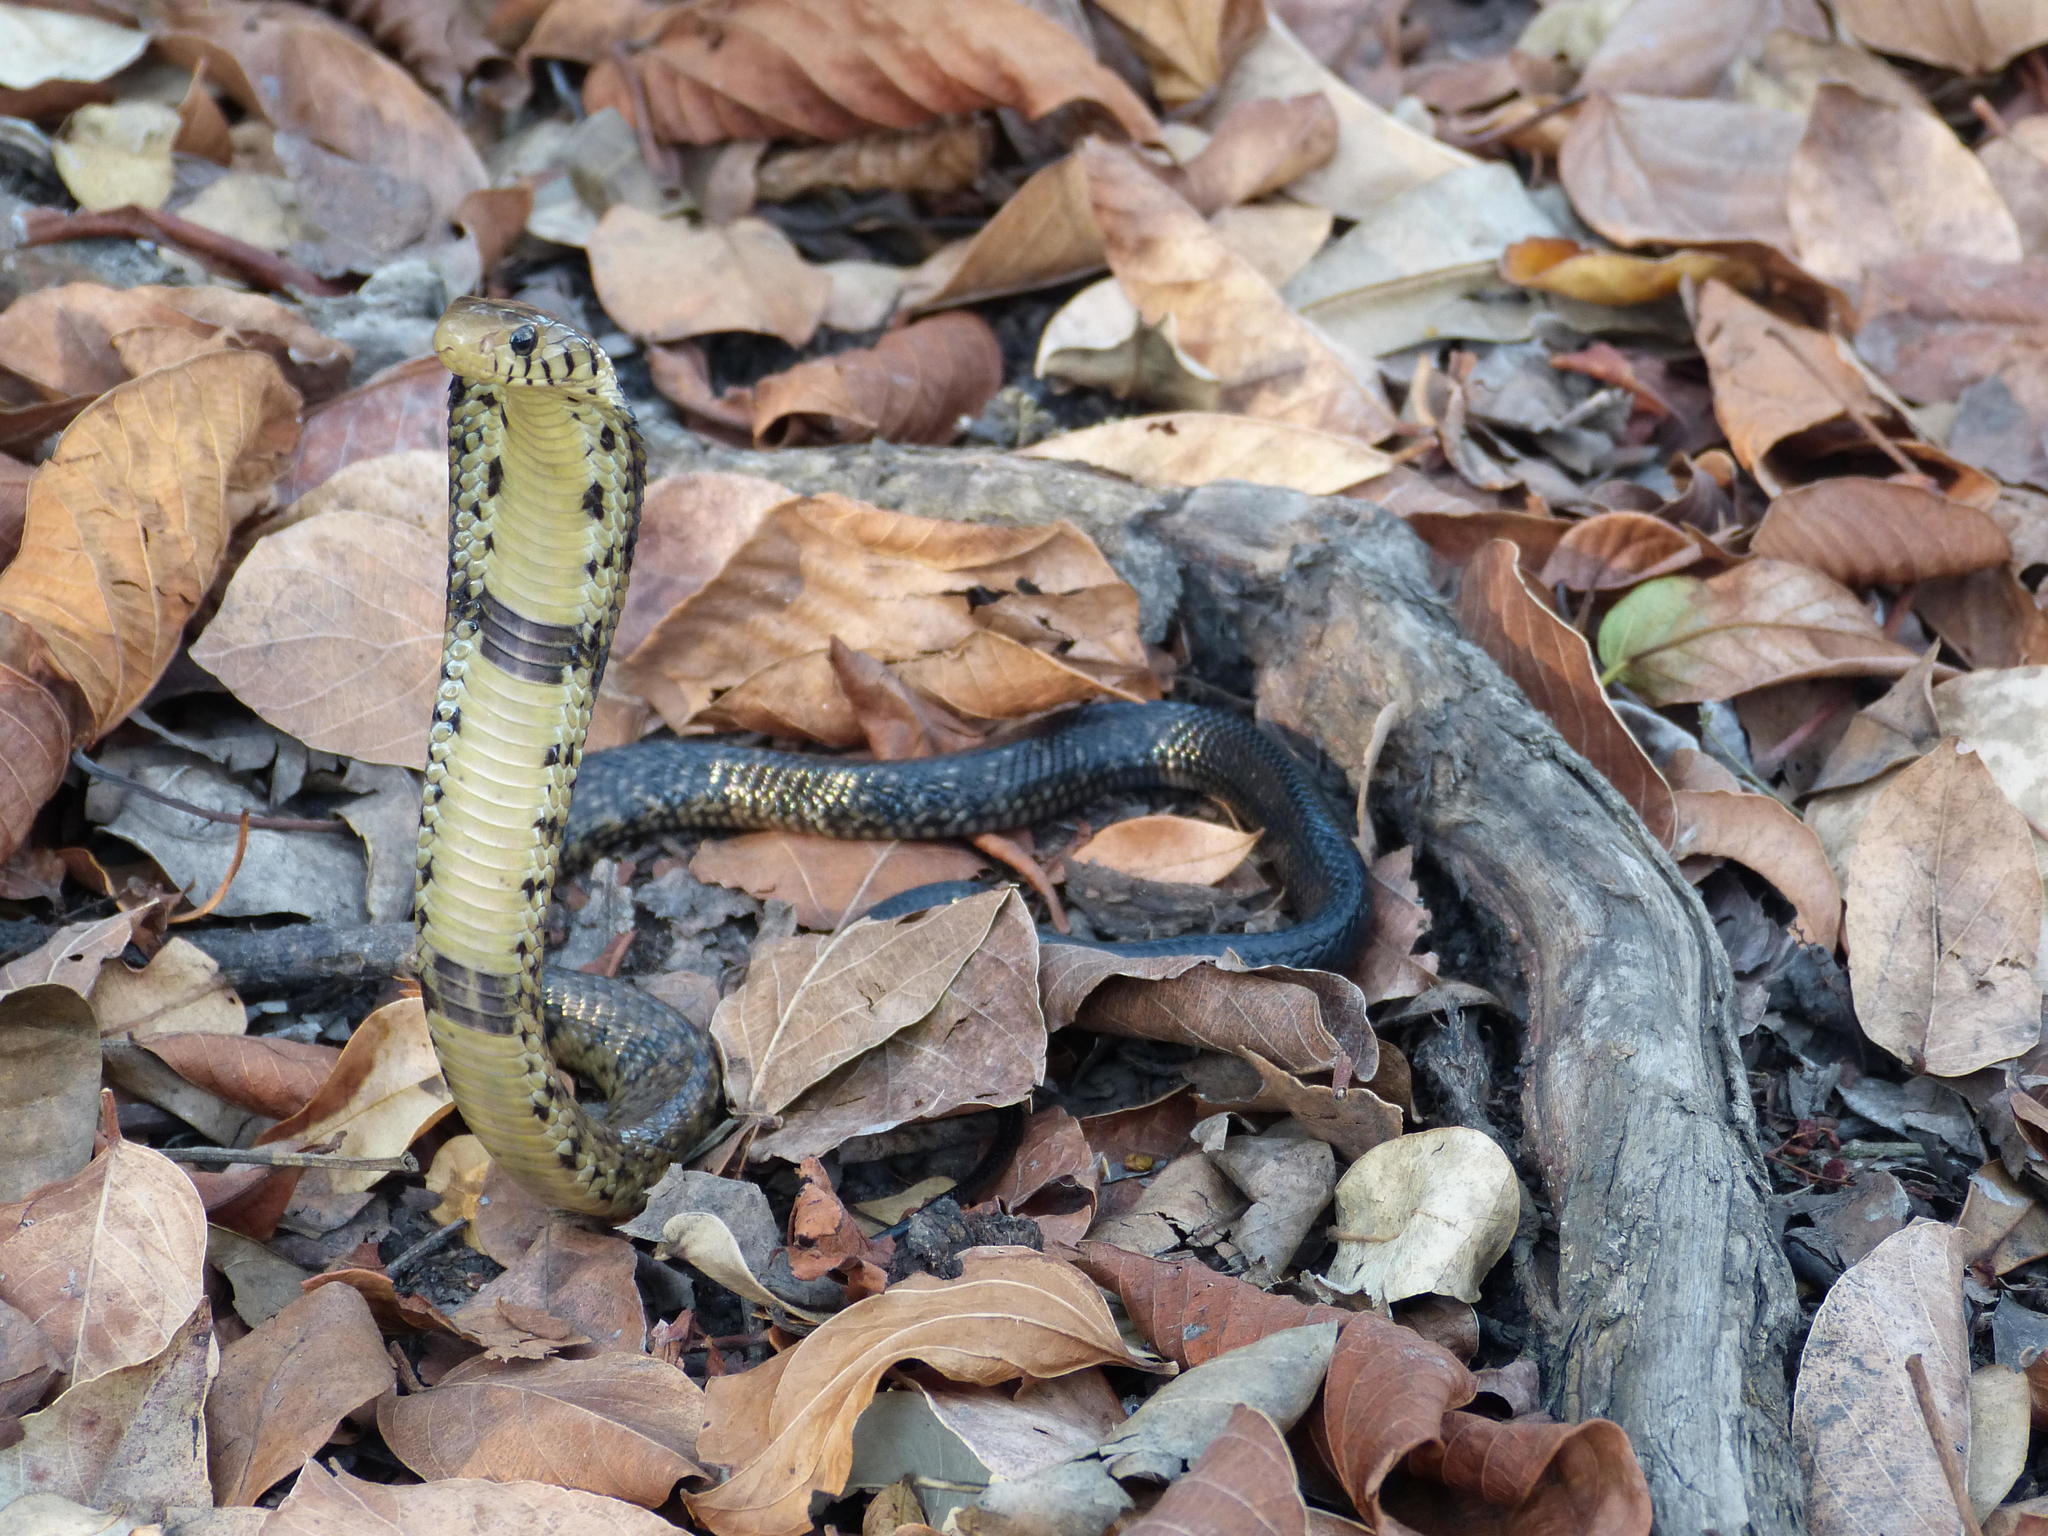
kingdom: Animalia
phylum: Chordata
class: Squamata
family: Elapidae
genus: Naja
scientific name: Naja subfulva
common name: Brown forest cobra
